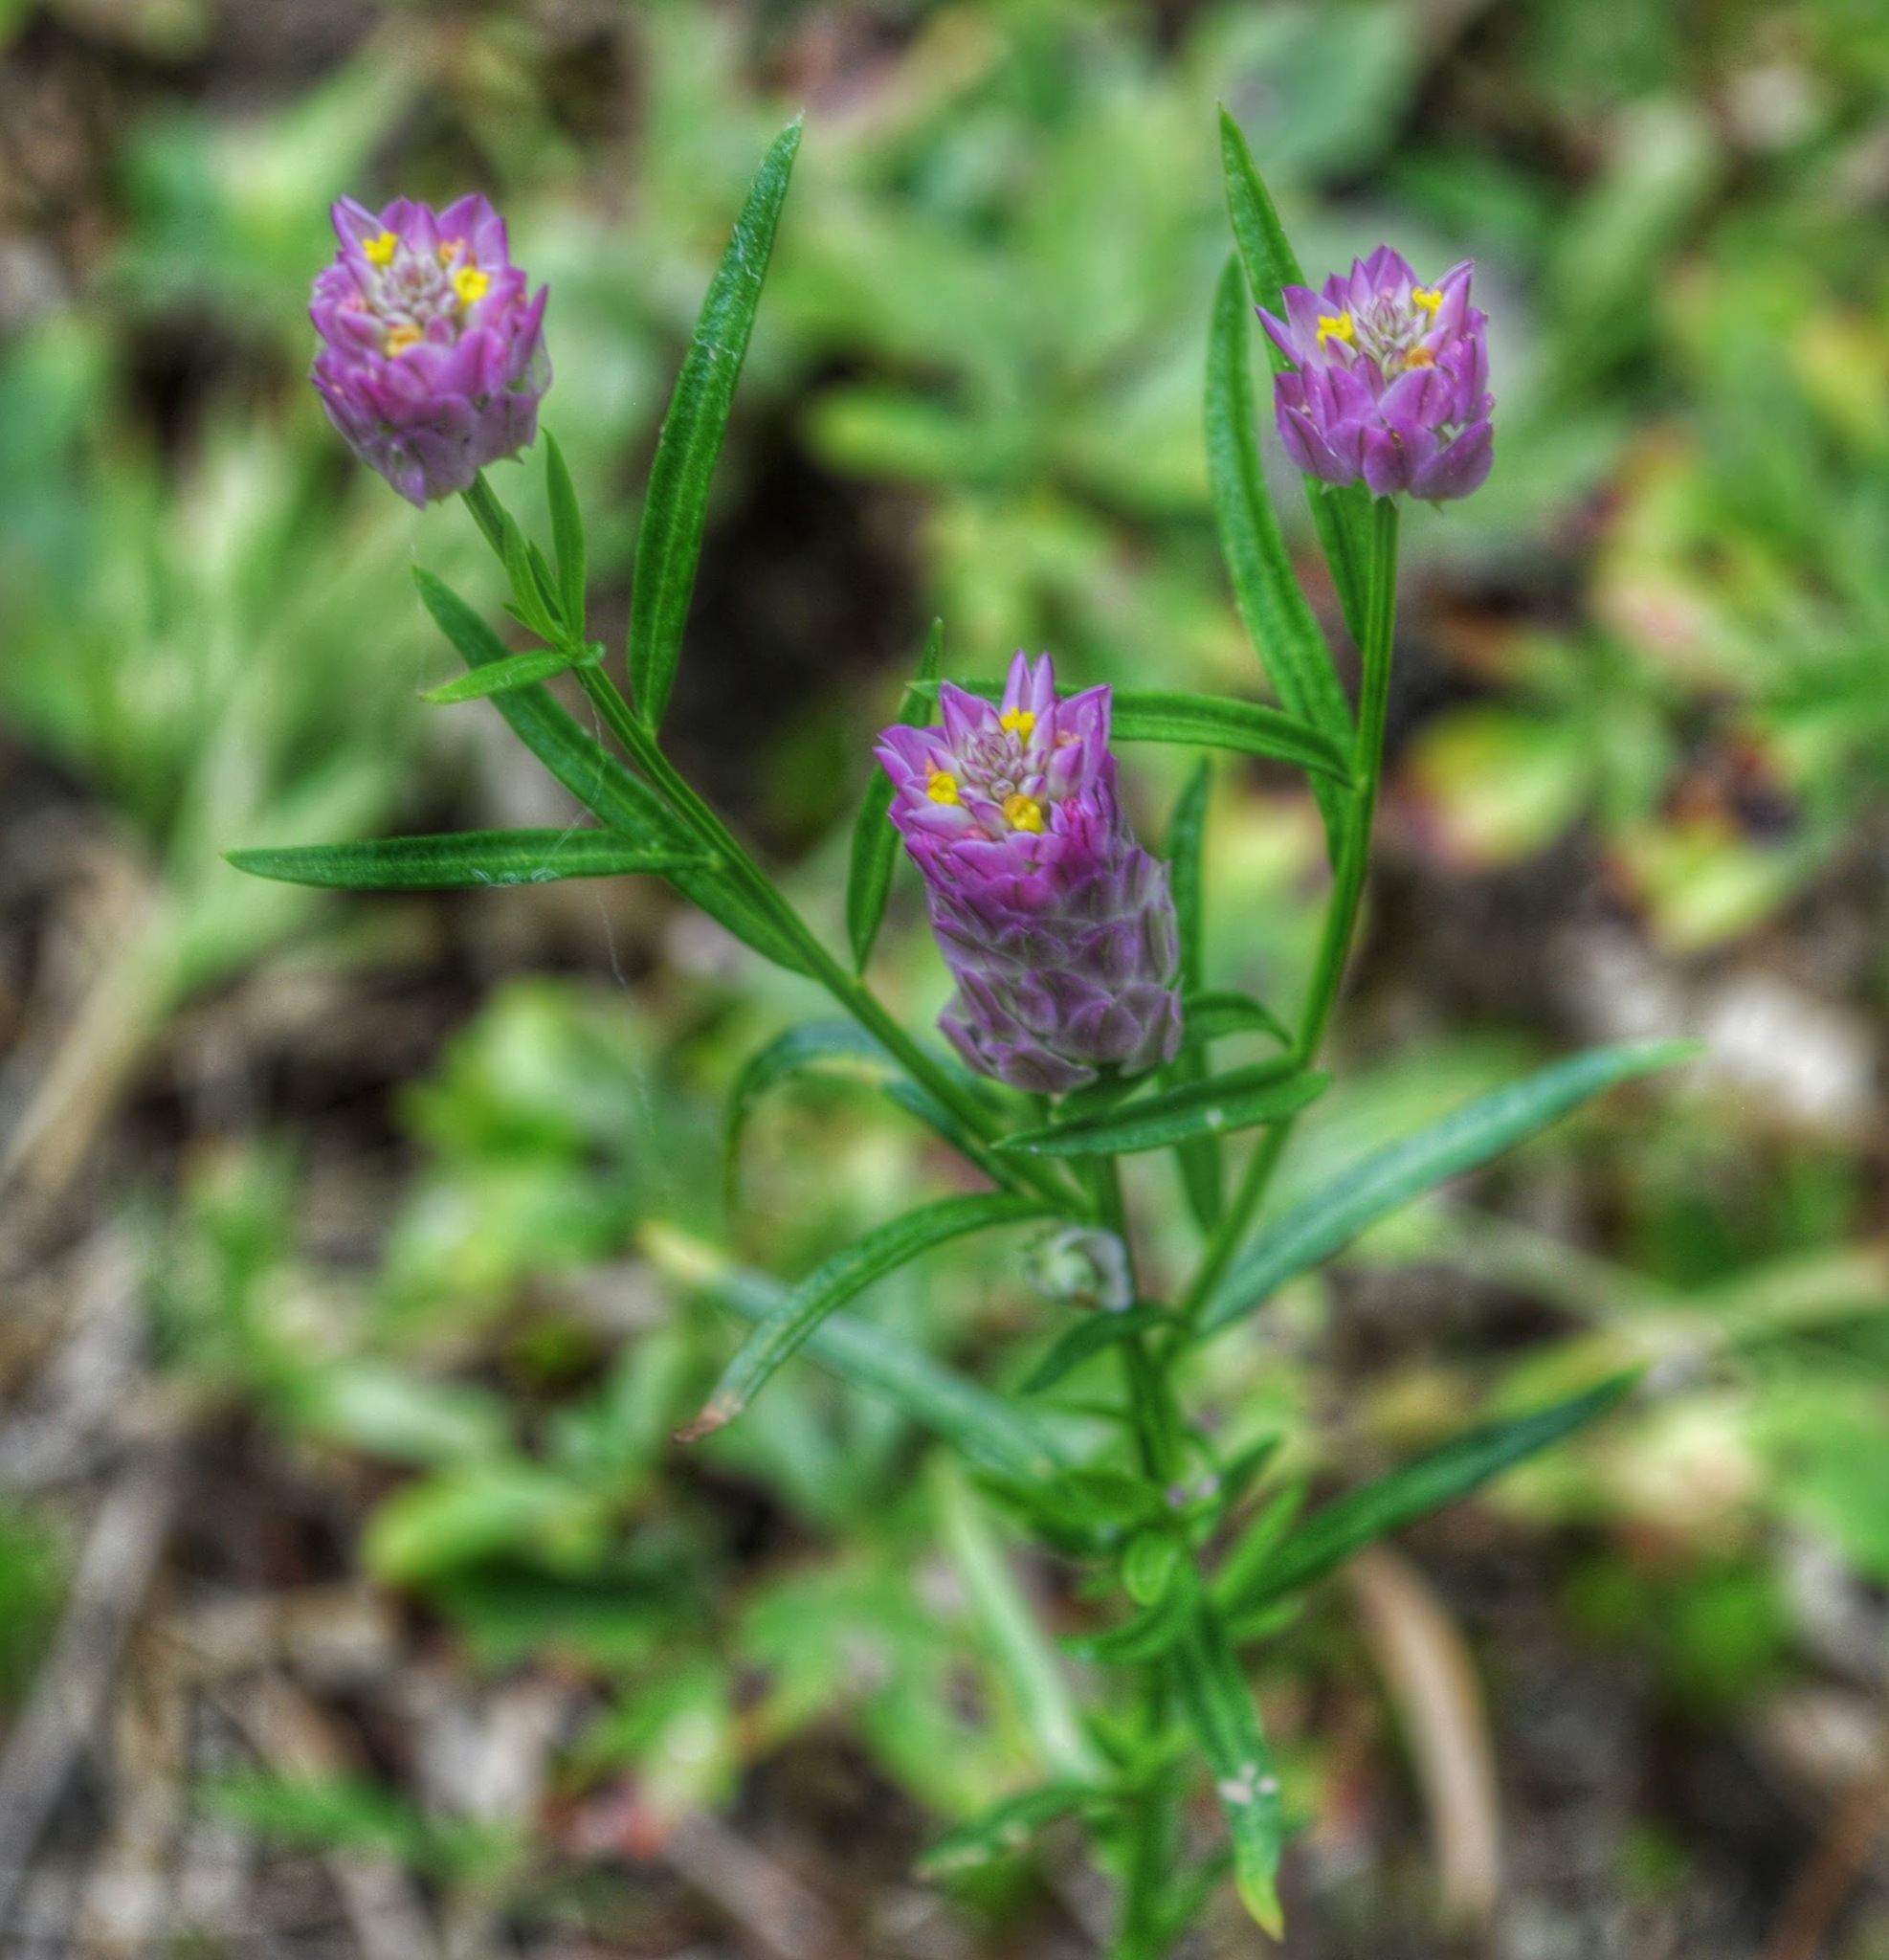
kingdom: Plantae
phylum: Tracheophyta
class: Magnoliopsida
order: Fabales
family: Polygalaceae
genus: Polygala
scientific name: Polygala sanguinea
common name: Blood milkwort
